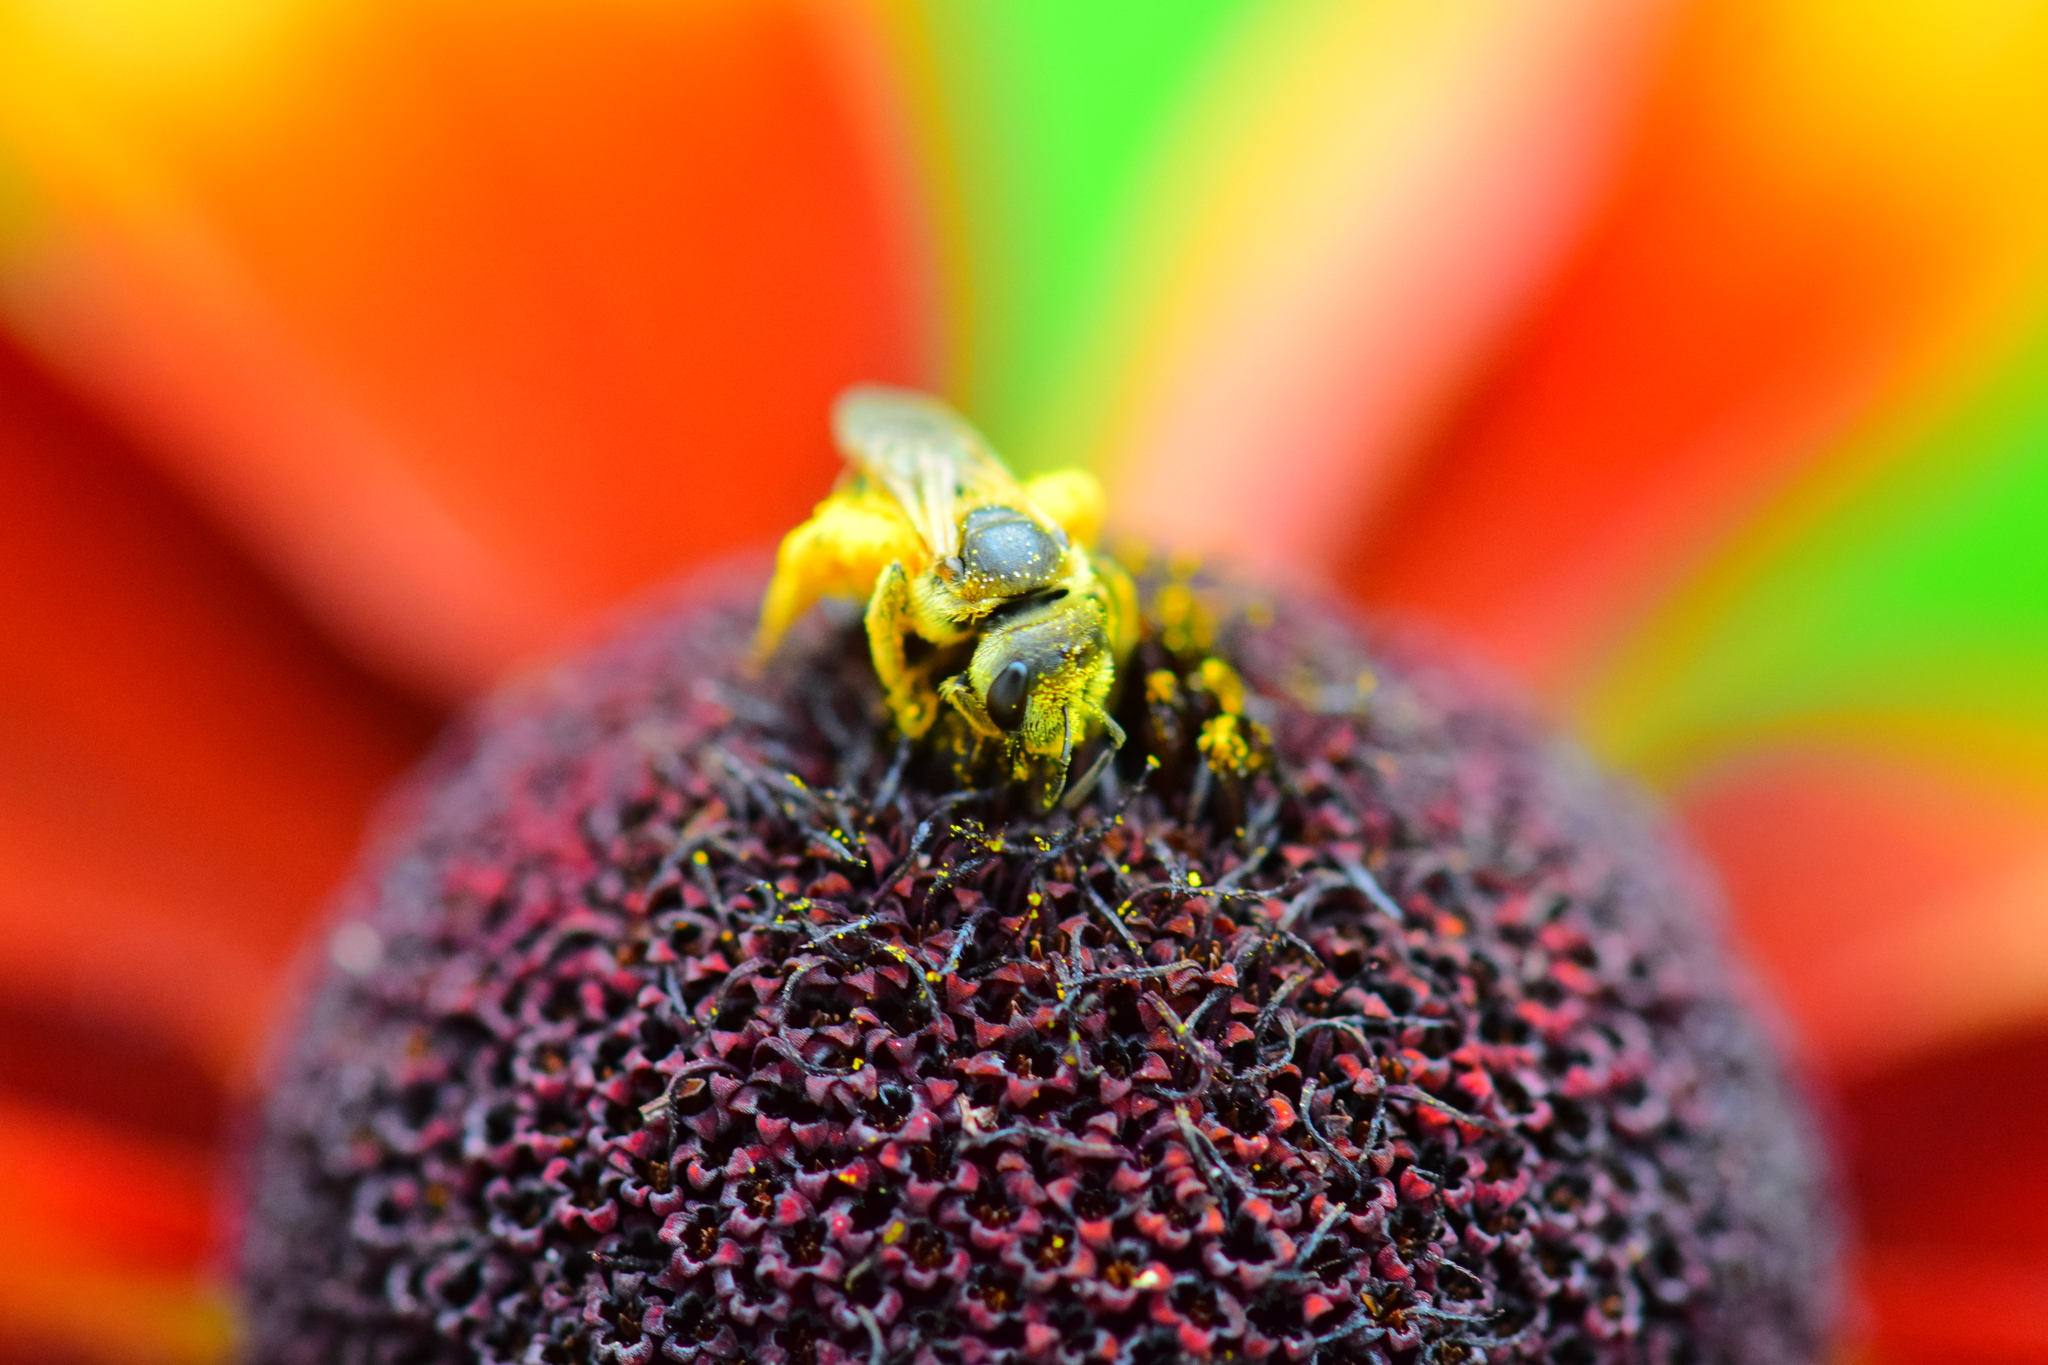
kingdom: Animalia
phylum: Arthropoda
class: Insecta
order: Hymenoptera
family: Halictidae
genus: Halictus
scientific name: Halictus ligatus
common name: Ligated furrow bee
